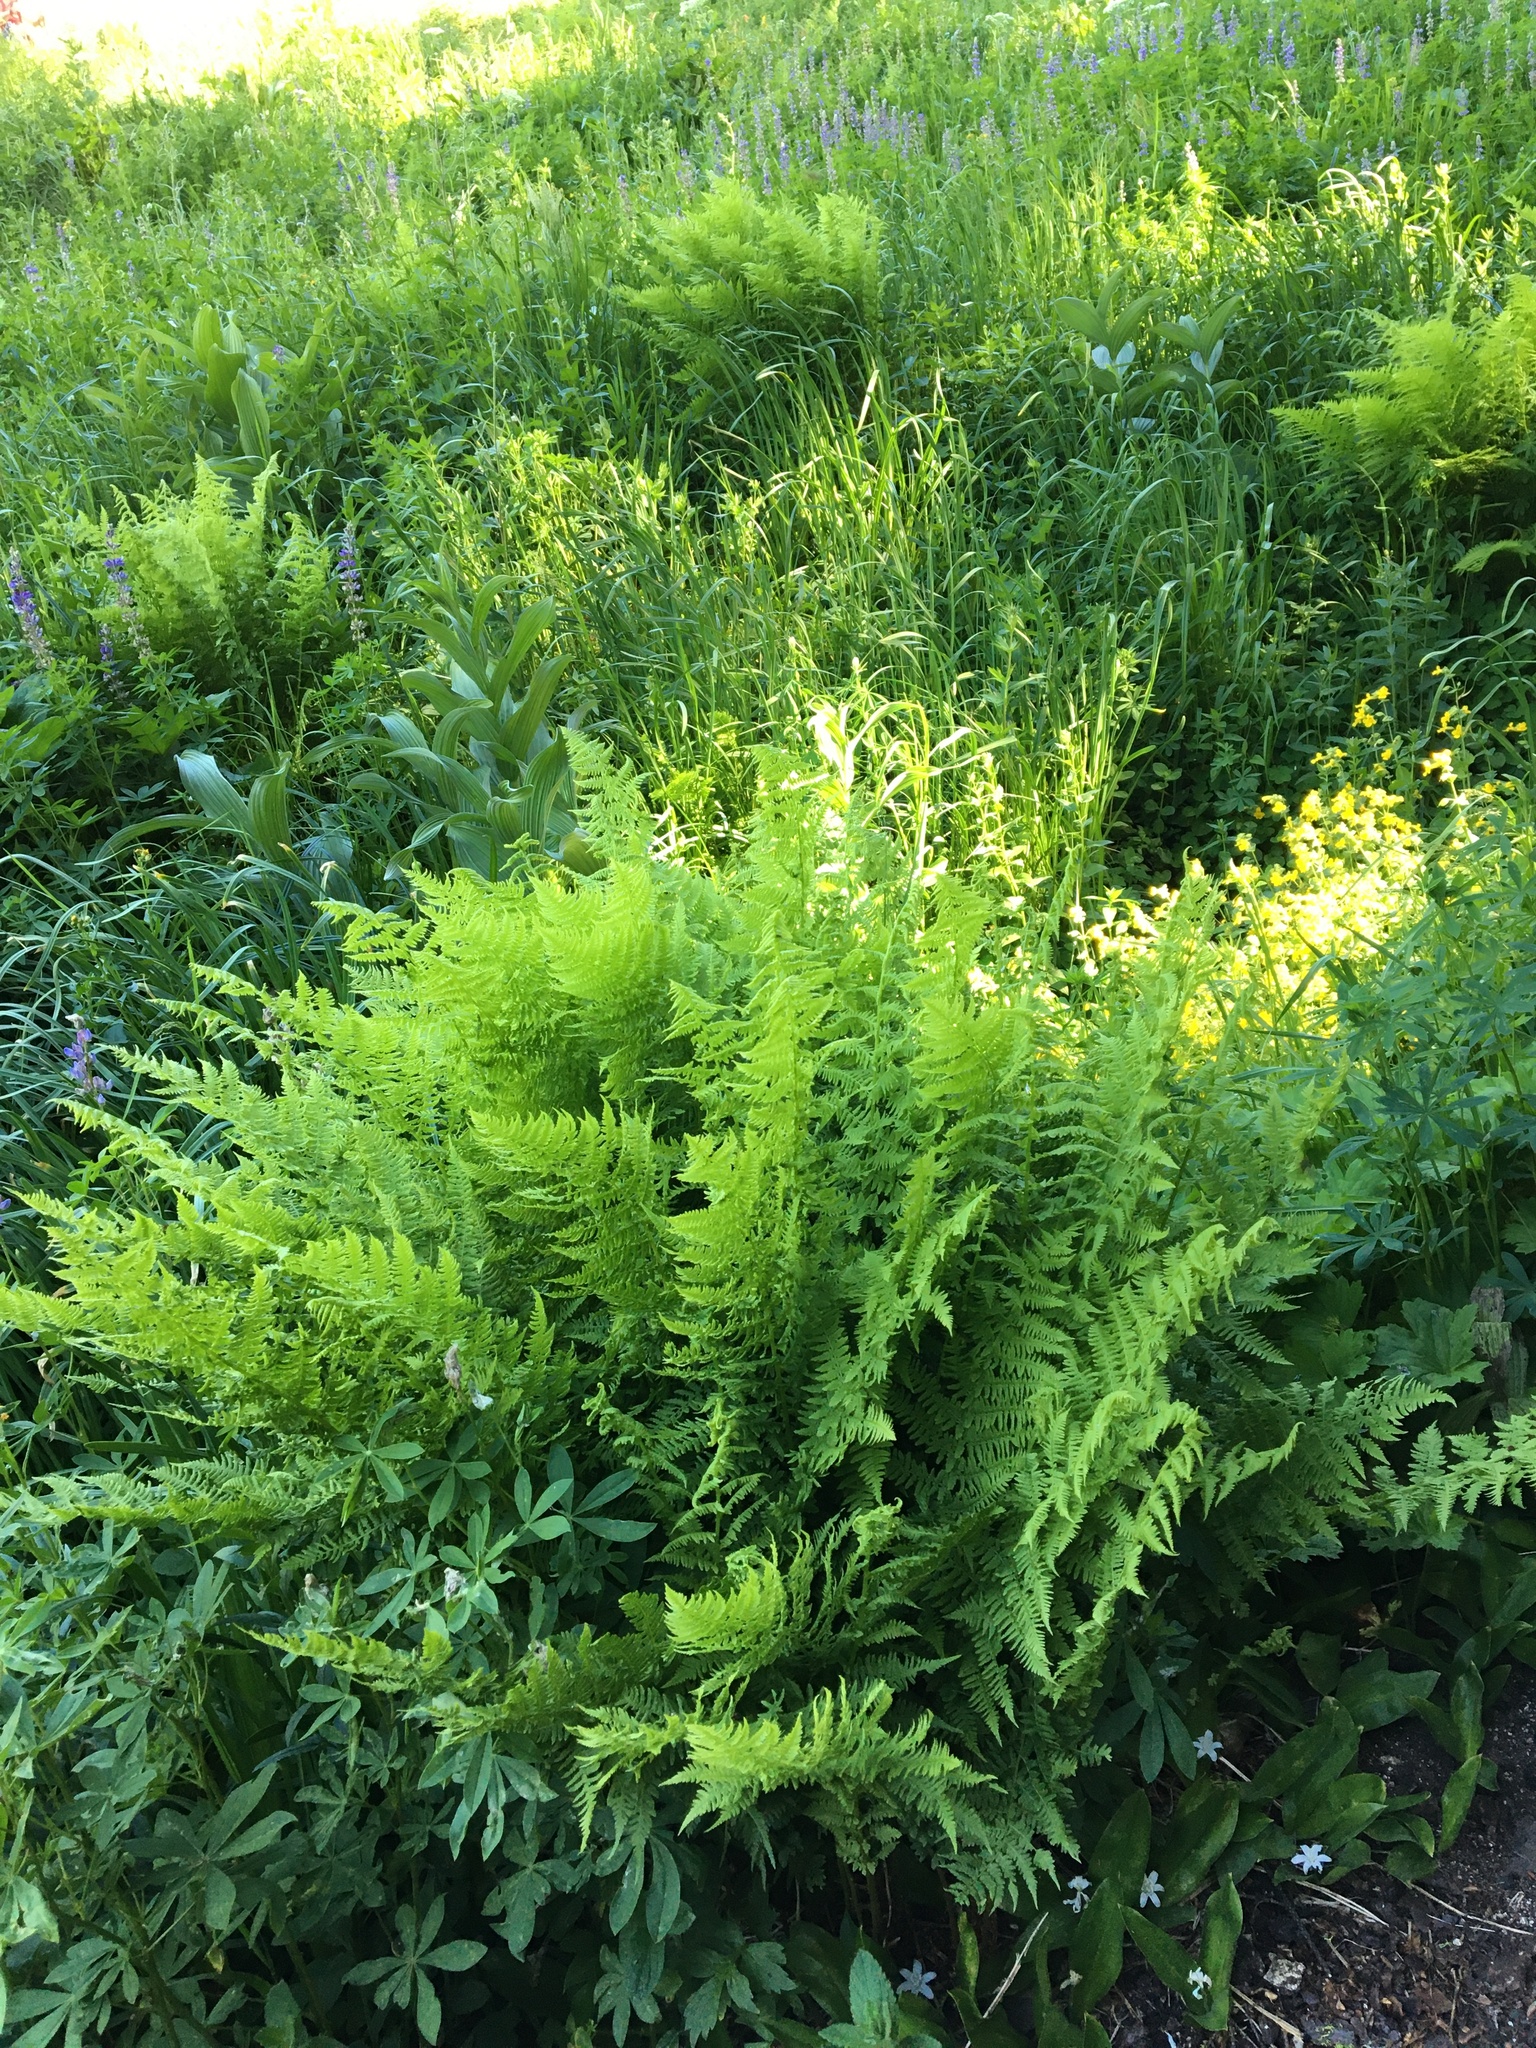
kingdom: Plantae
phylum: Tracheophyta
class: Polypodiopsida
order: Polypodiales
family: Athyriaceae
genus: Athyrium
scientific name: Athyrium filix-femina
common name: Lady fern
